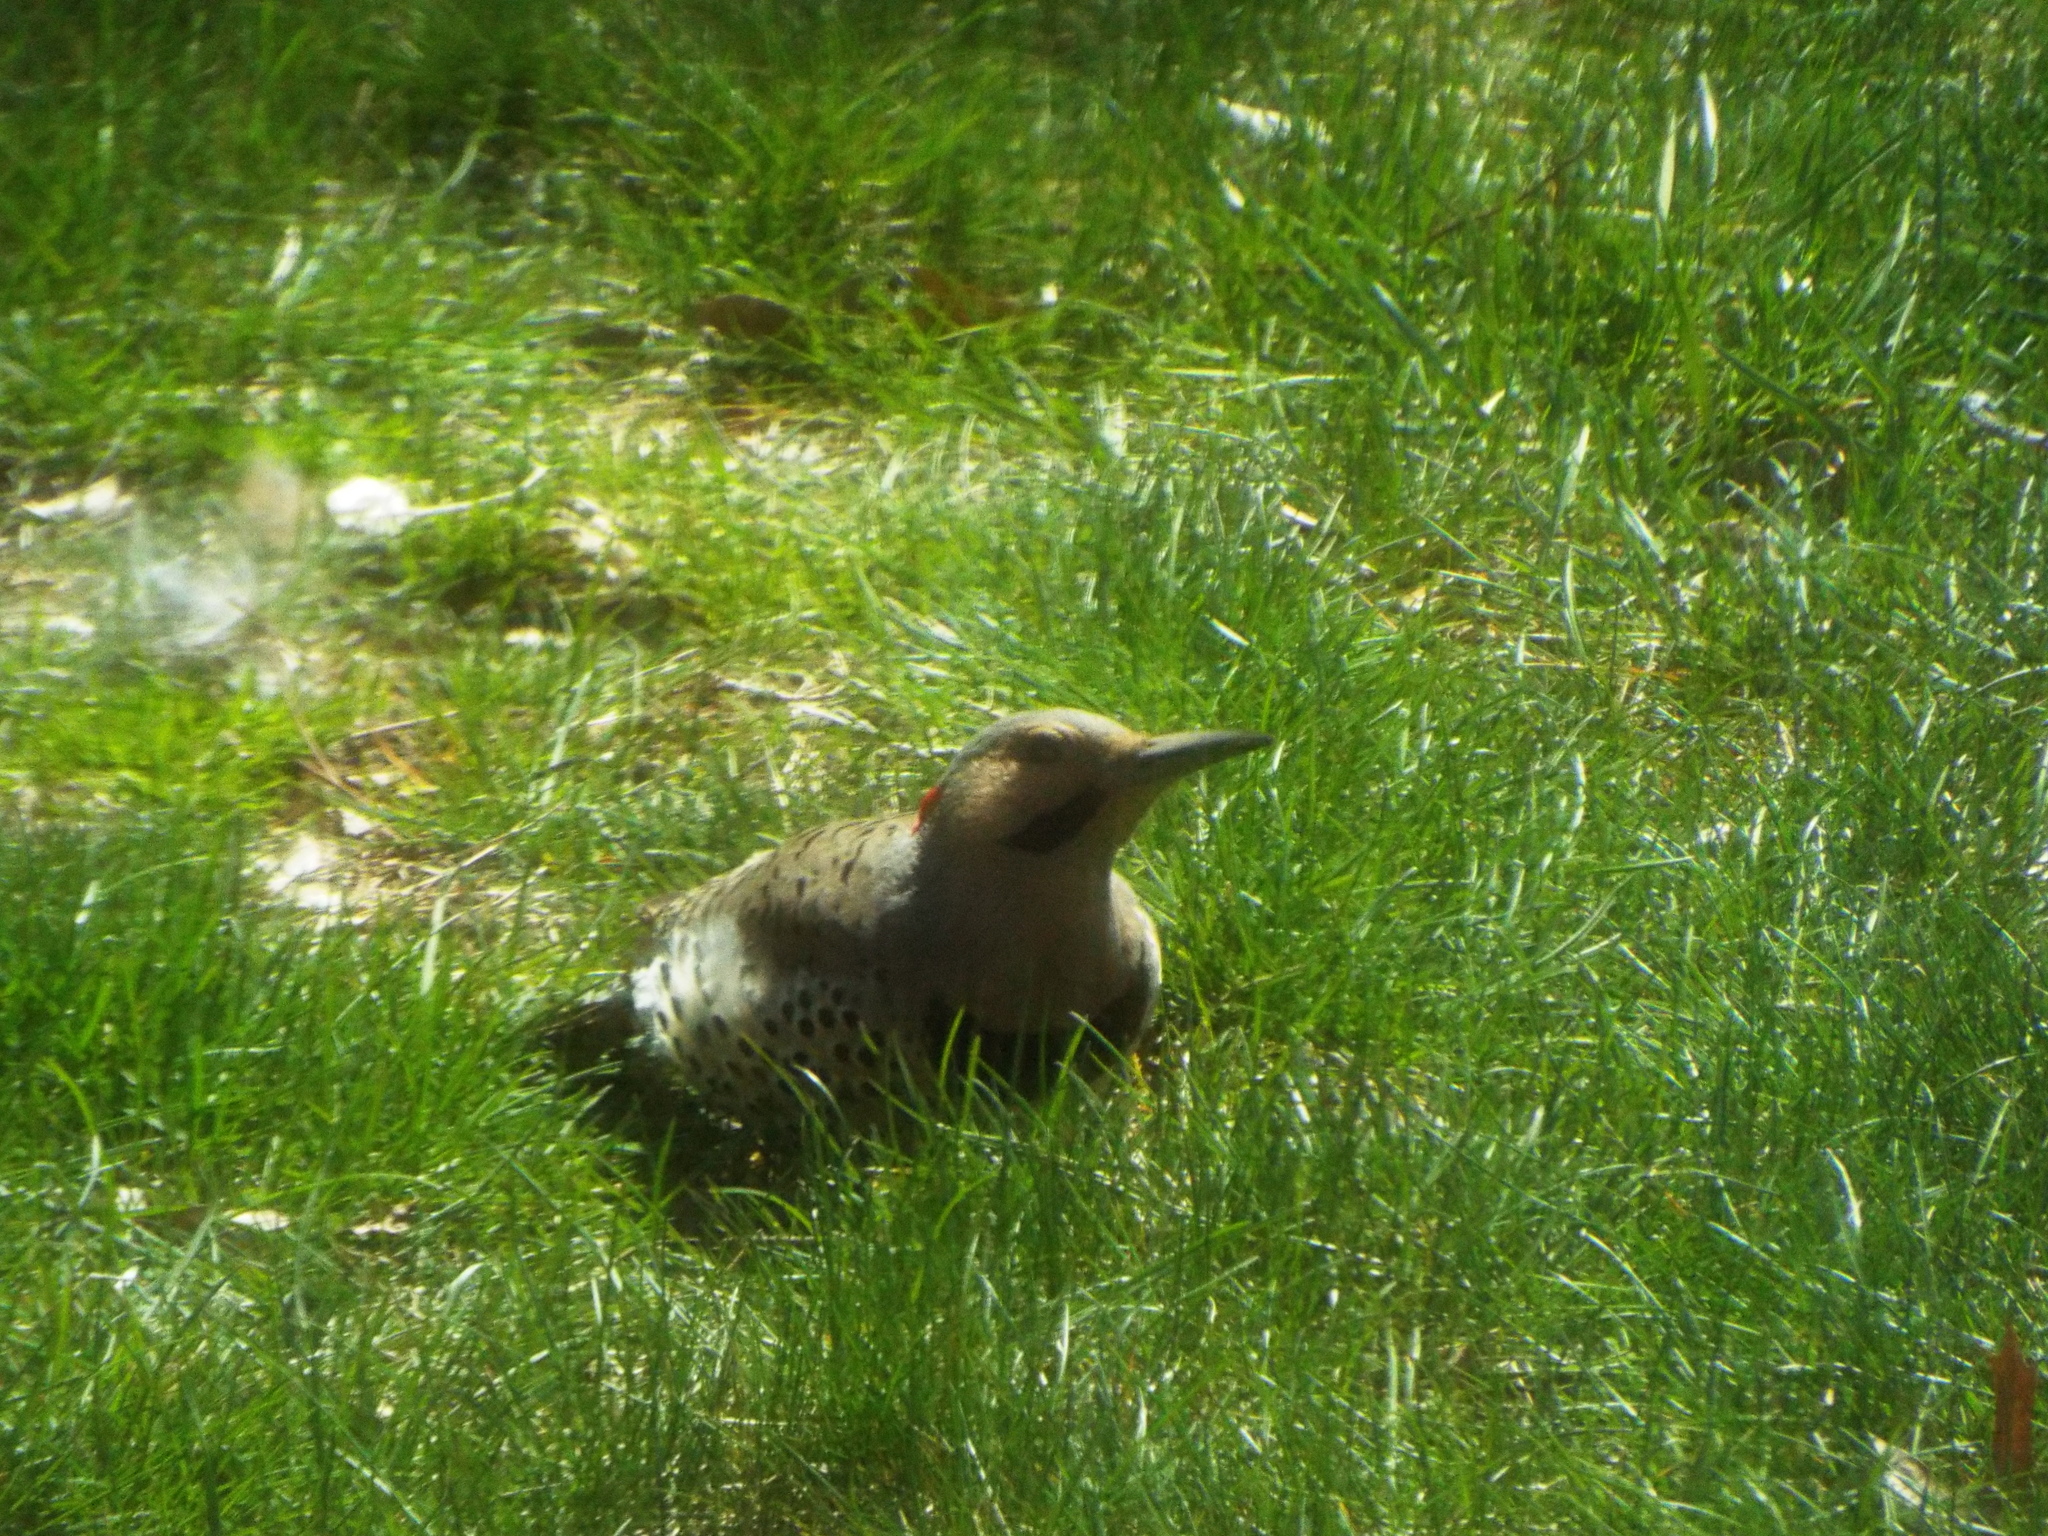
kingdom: Animalia
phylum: Chordata
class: Aves
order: Piciformes
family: Picidae
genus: Colaptes
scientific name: Colaptes auratus
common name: Northern flicker
